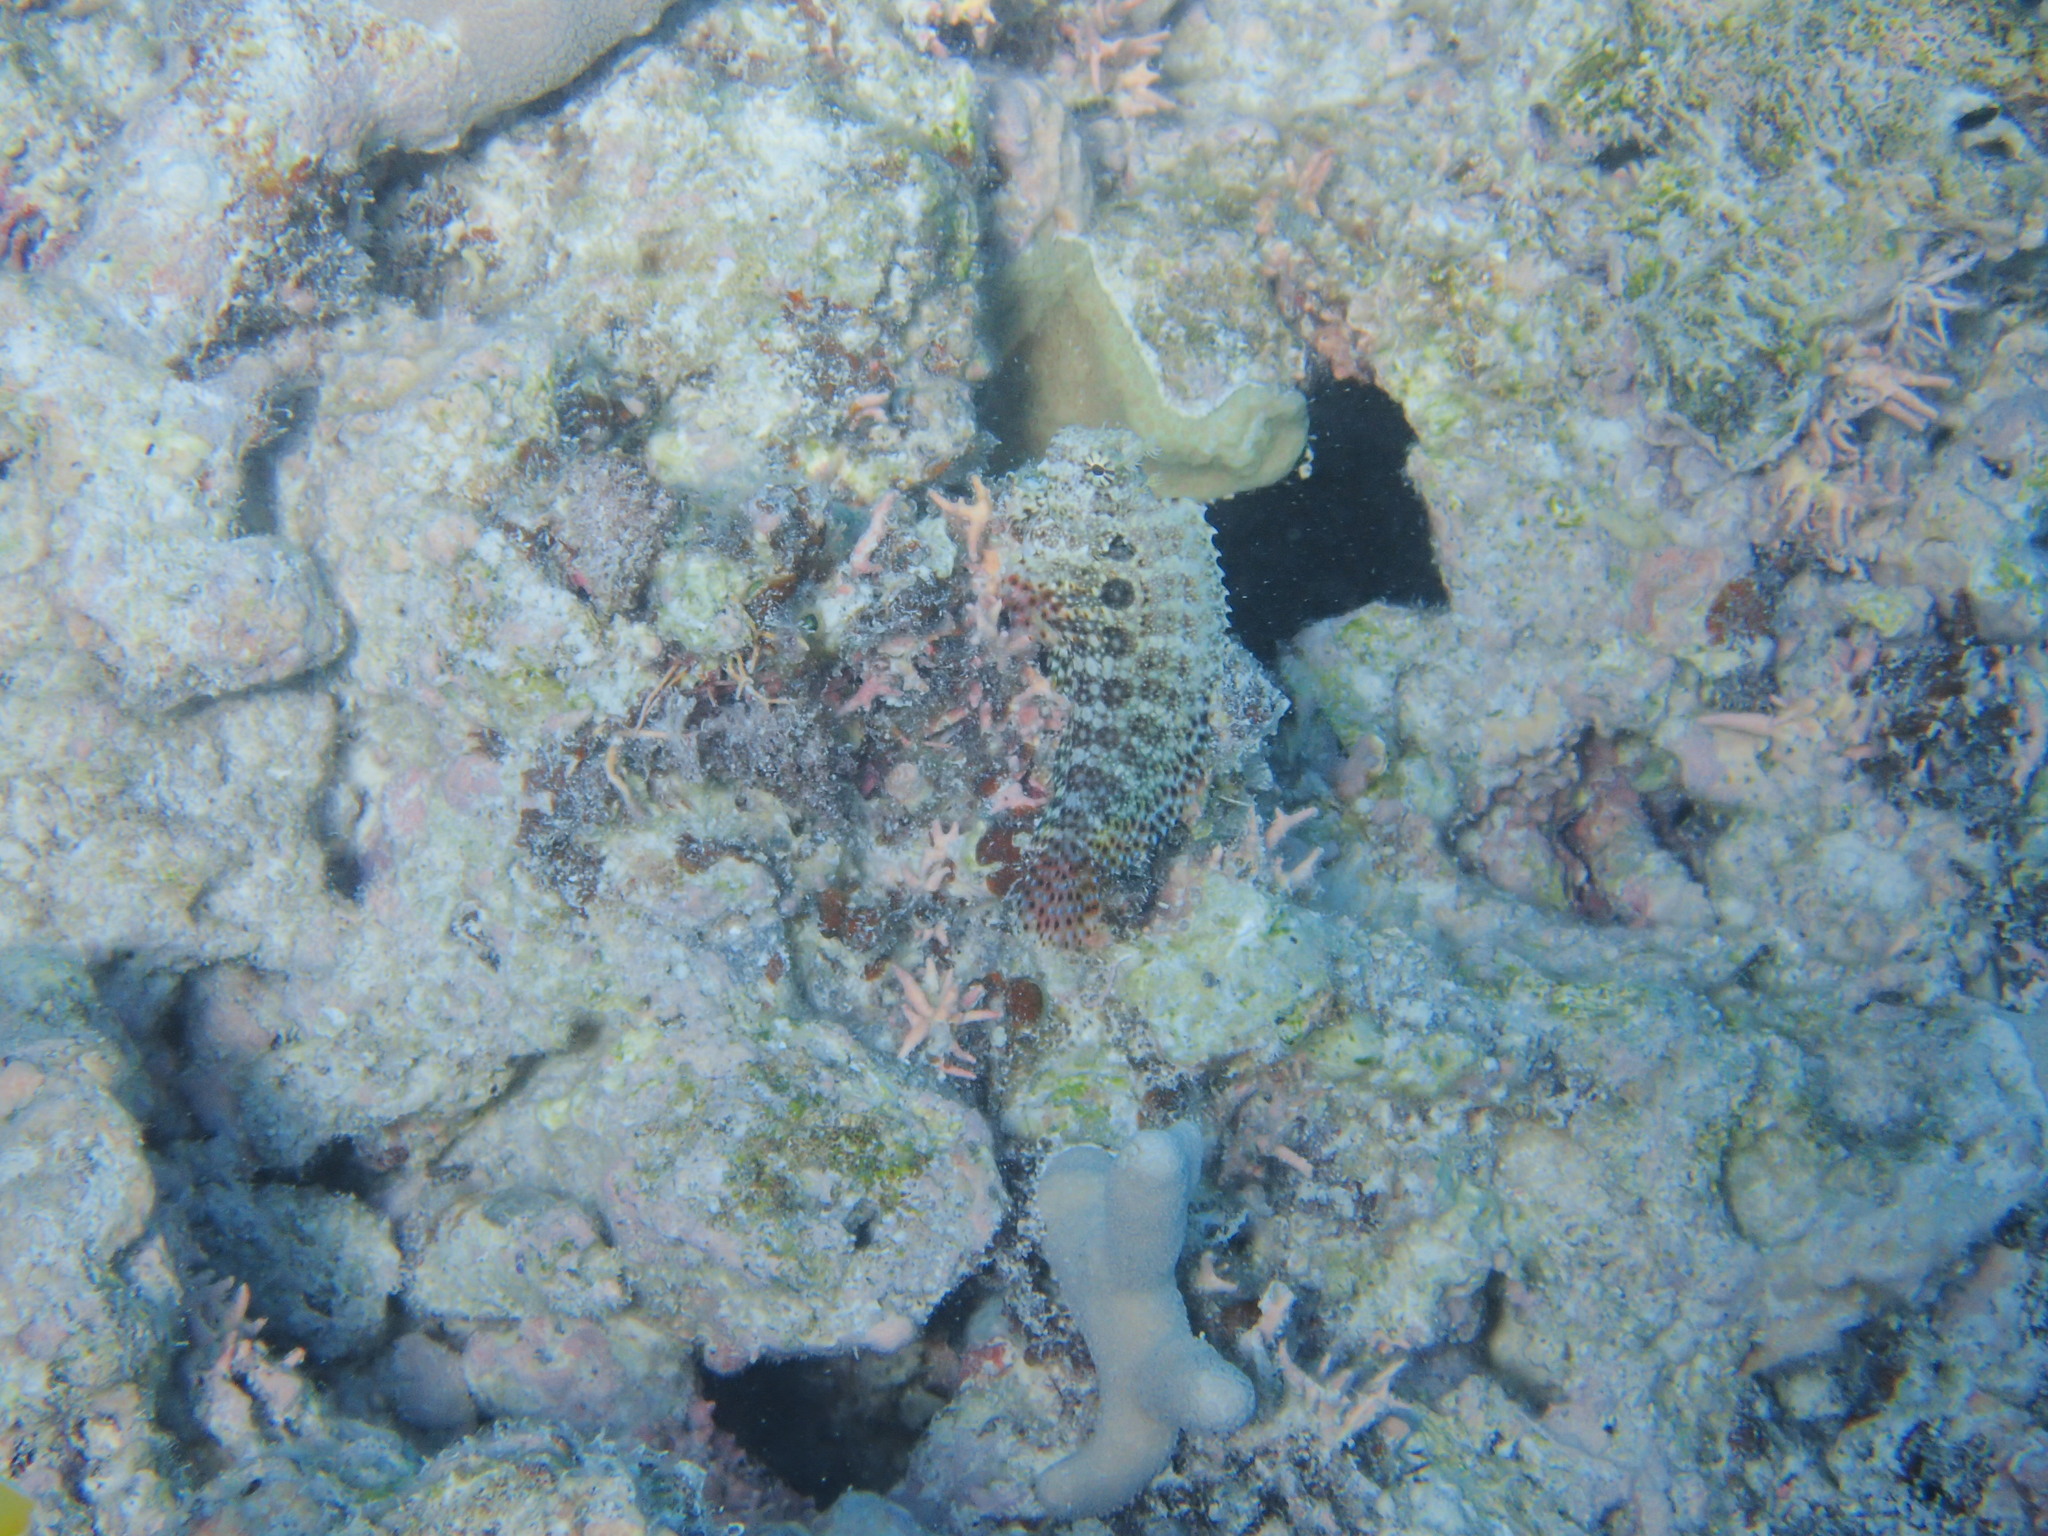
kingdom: Animalia
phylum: Chordata
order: Perciformes
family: Blenniidae
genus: Salarias
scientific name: Salarias ceramensis
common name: Seram blenny
